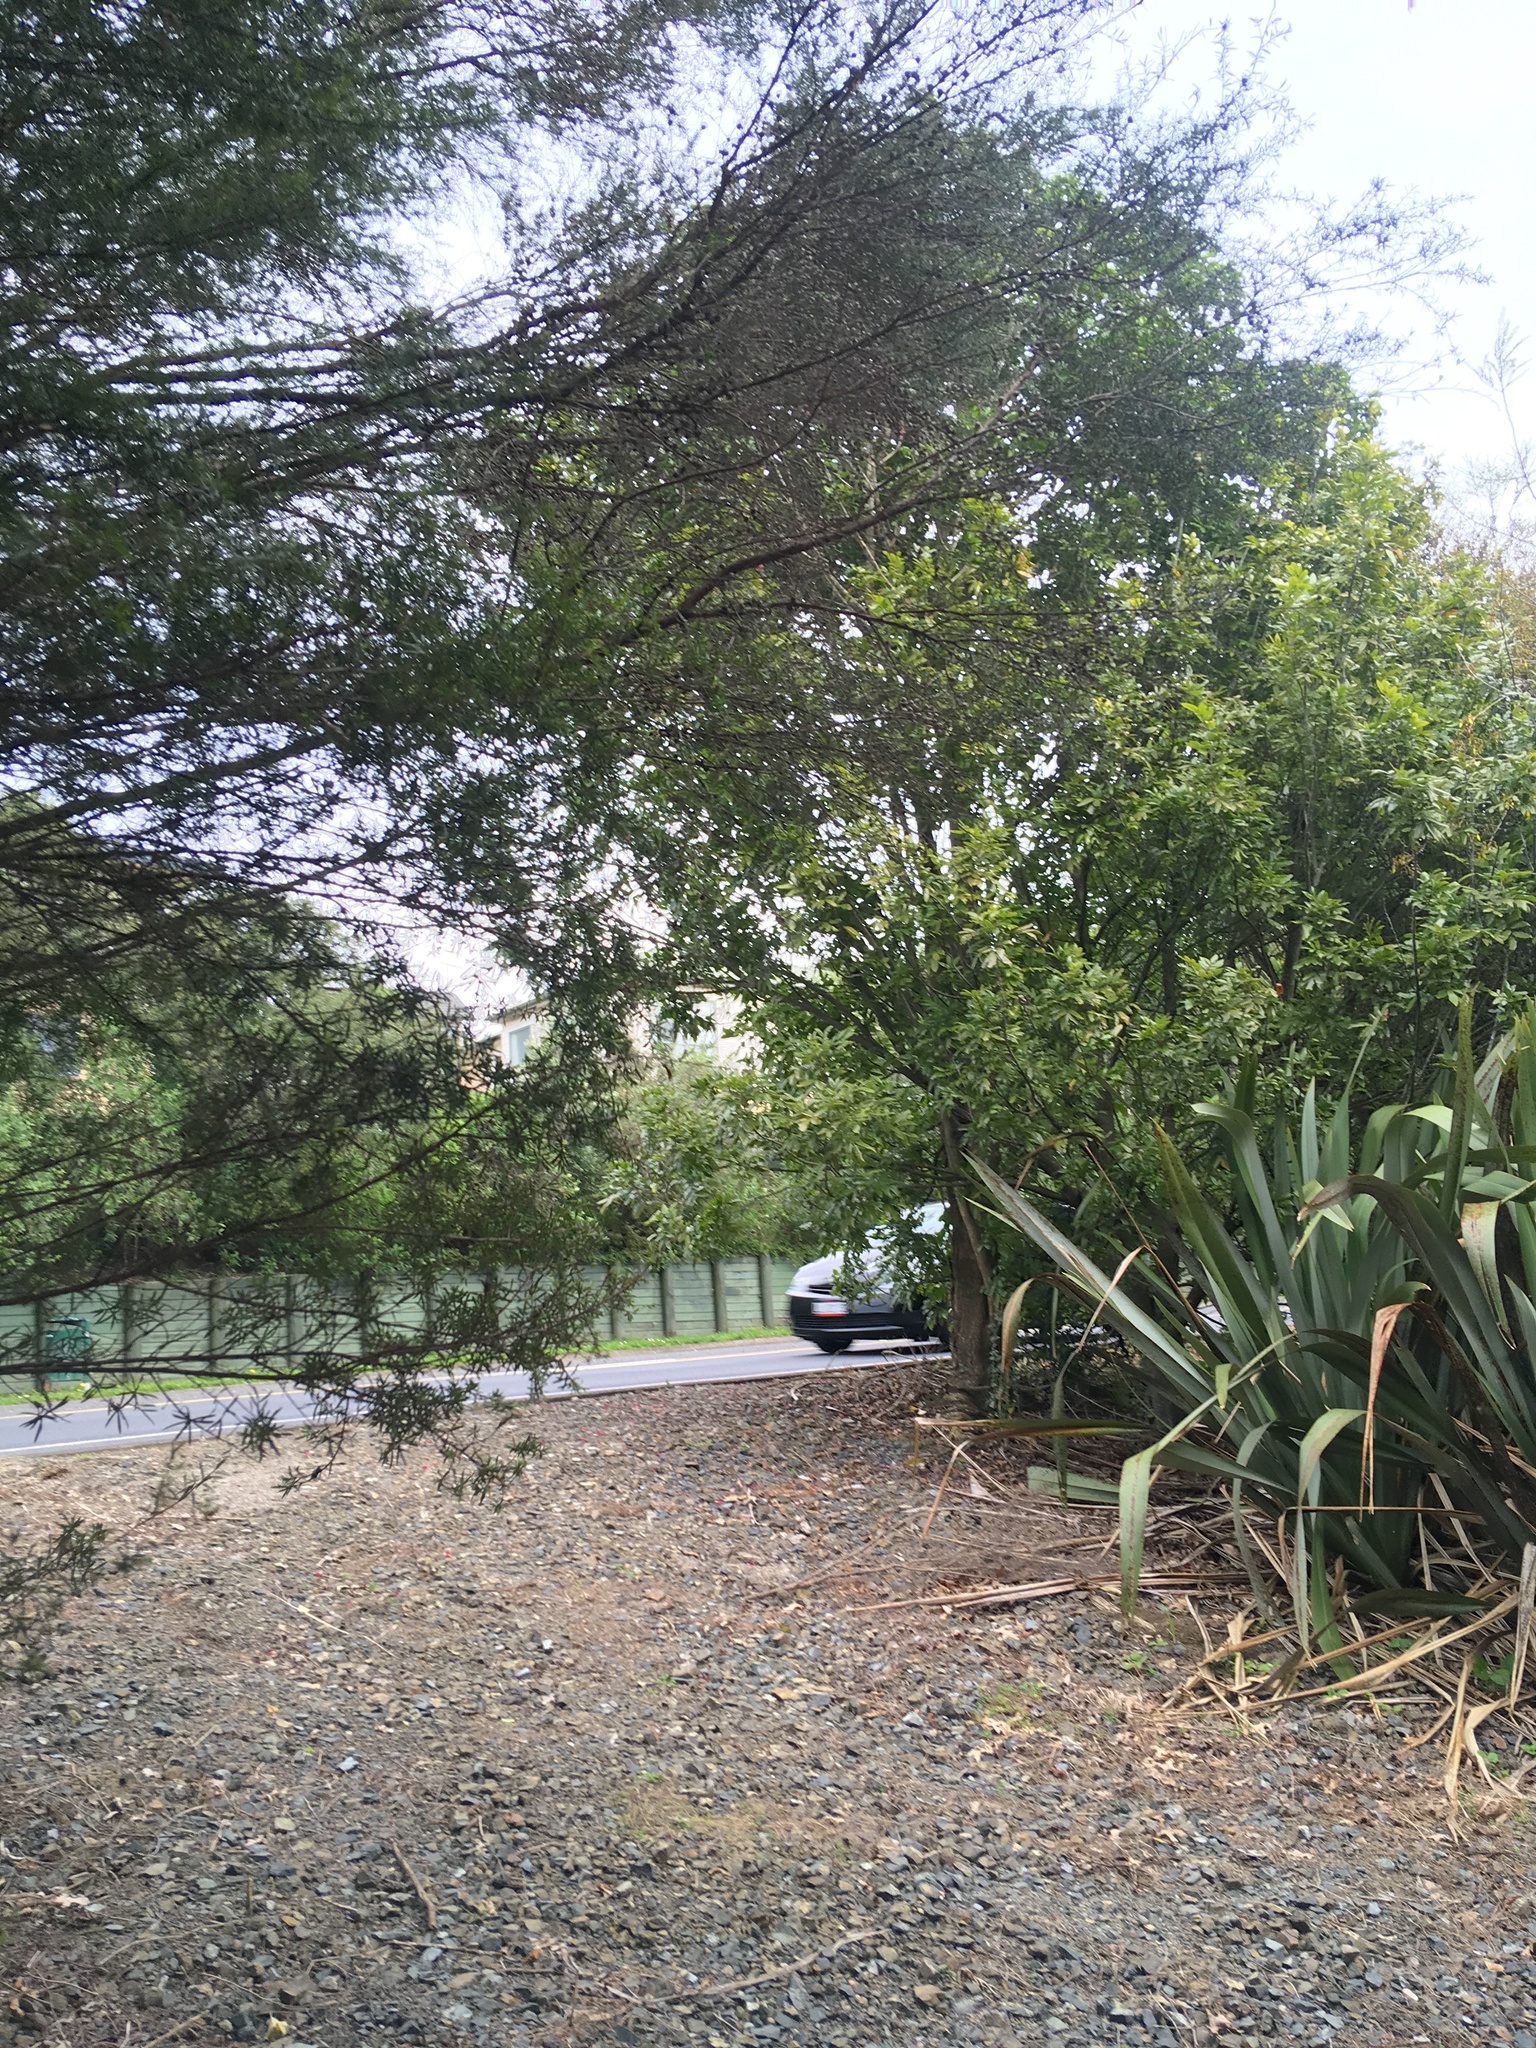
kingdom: Plantae
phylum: Tracheophyta
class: Liliopsida
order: Asparagales
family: Asphodelaceae
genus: Phormium
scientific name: Phormium tenax
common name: New zealand flax
